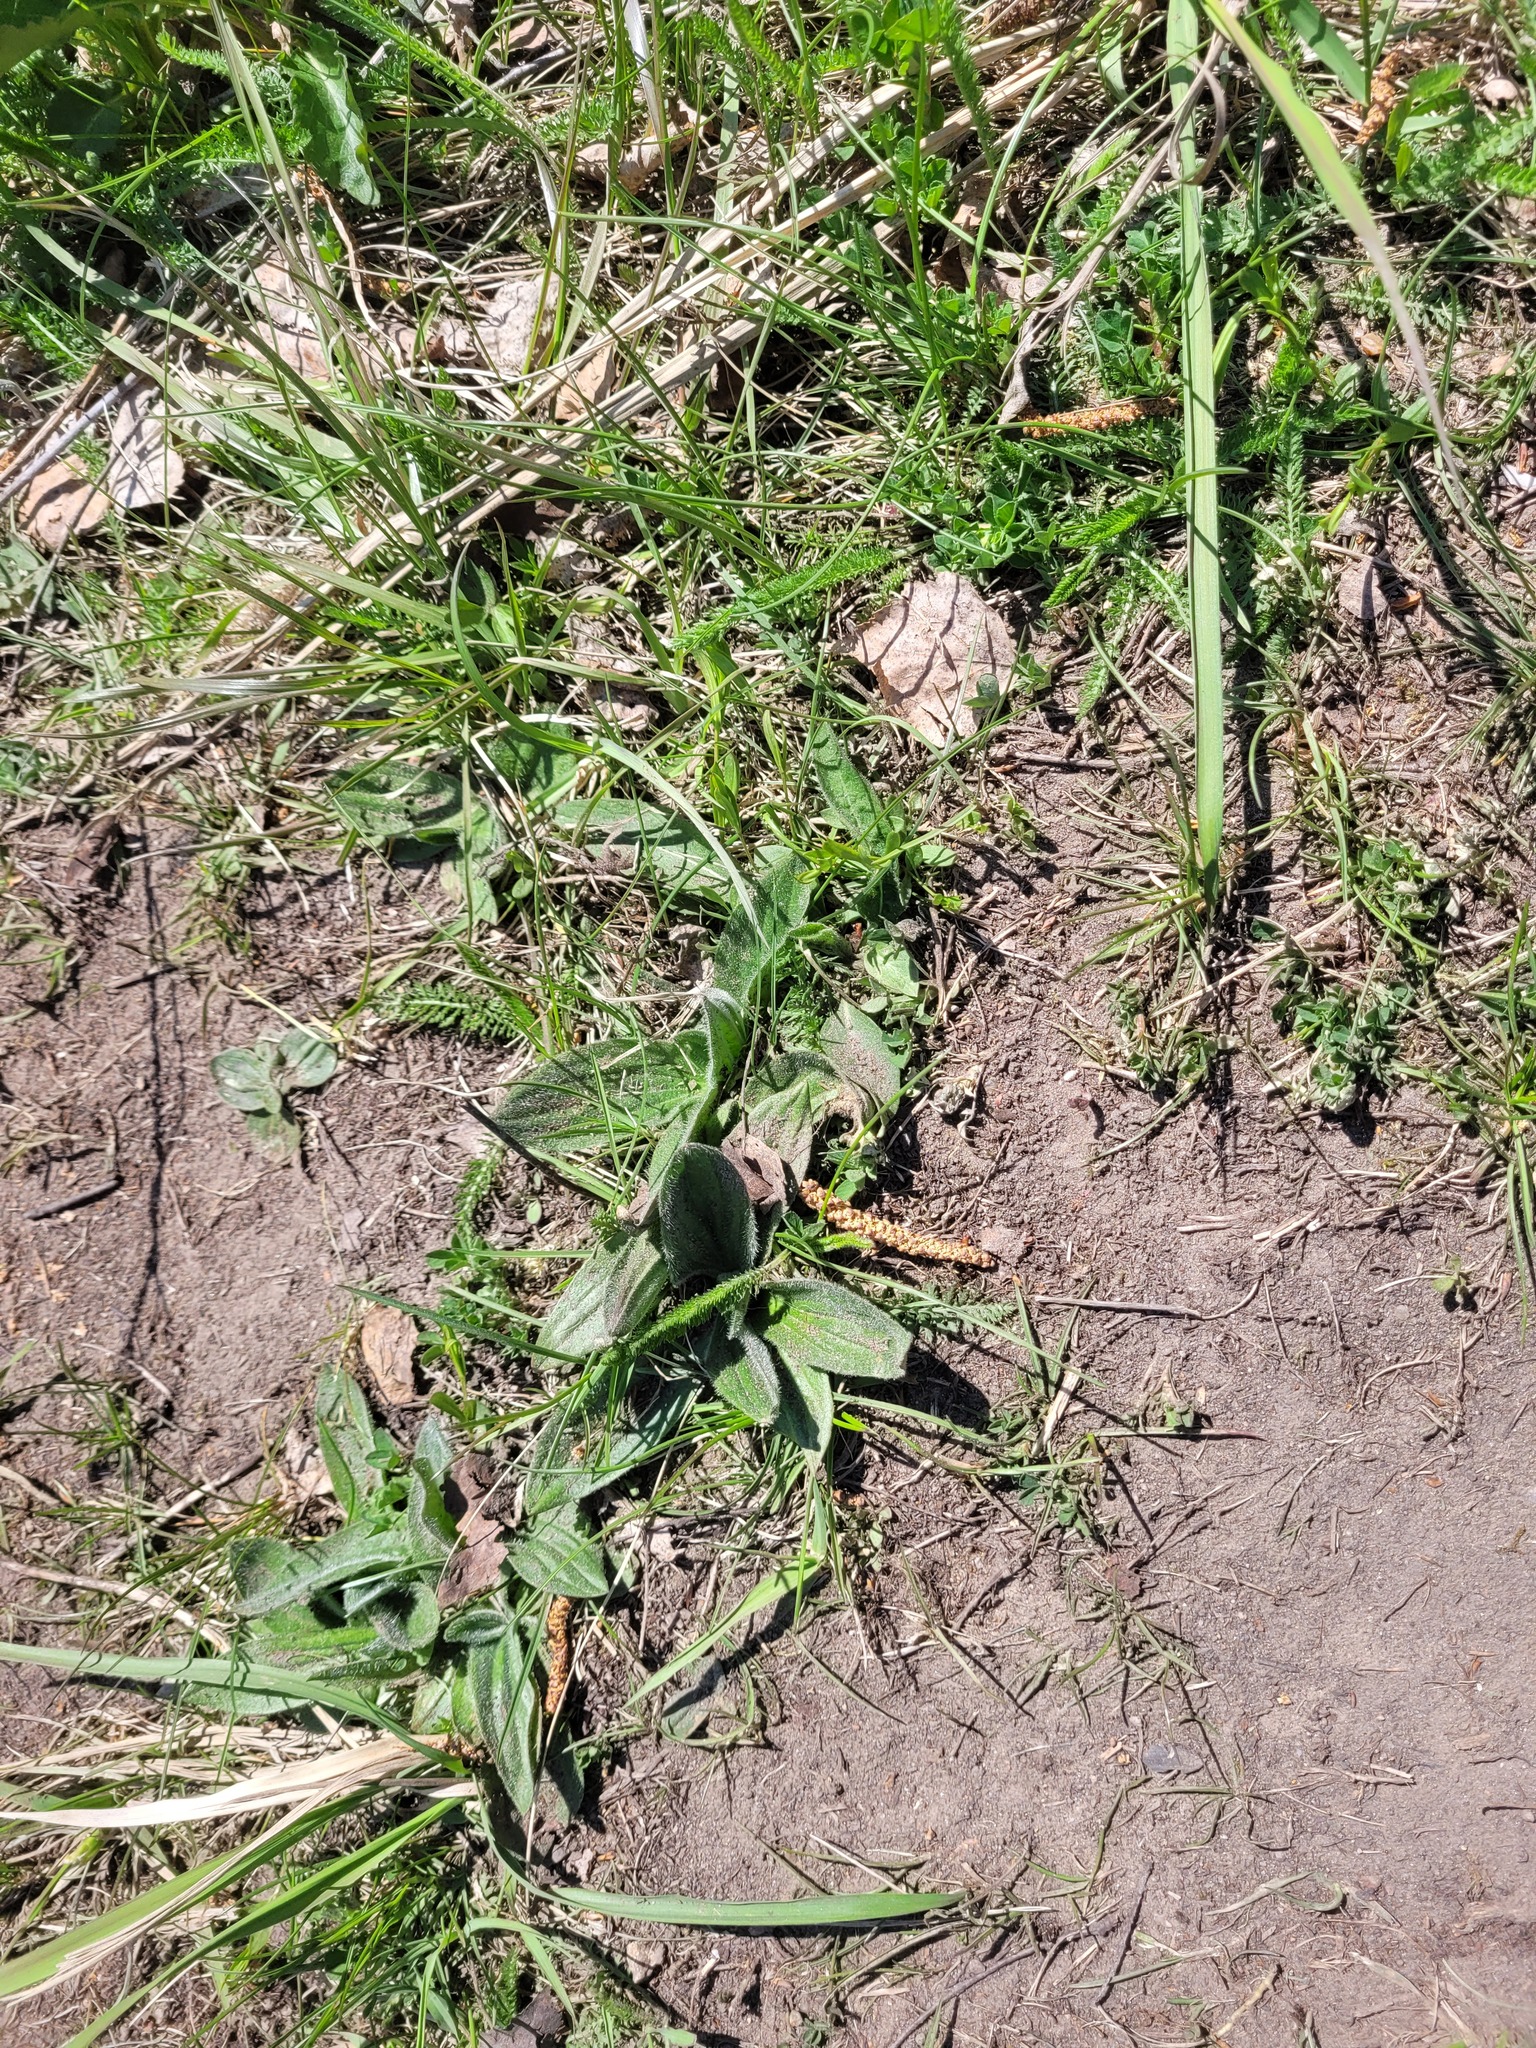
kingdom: Plantae
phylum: Tracheophyta
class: Magnoliopsida
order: Lamiales
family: Plantaginaceae
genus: Plantago
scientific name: Plantago media
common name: Hoary plantain
